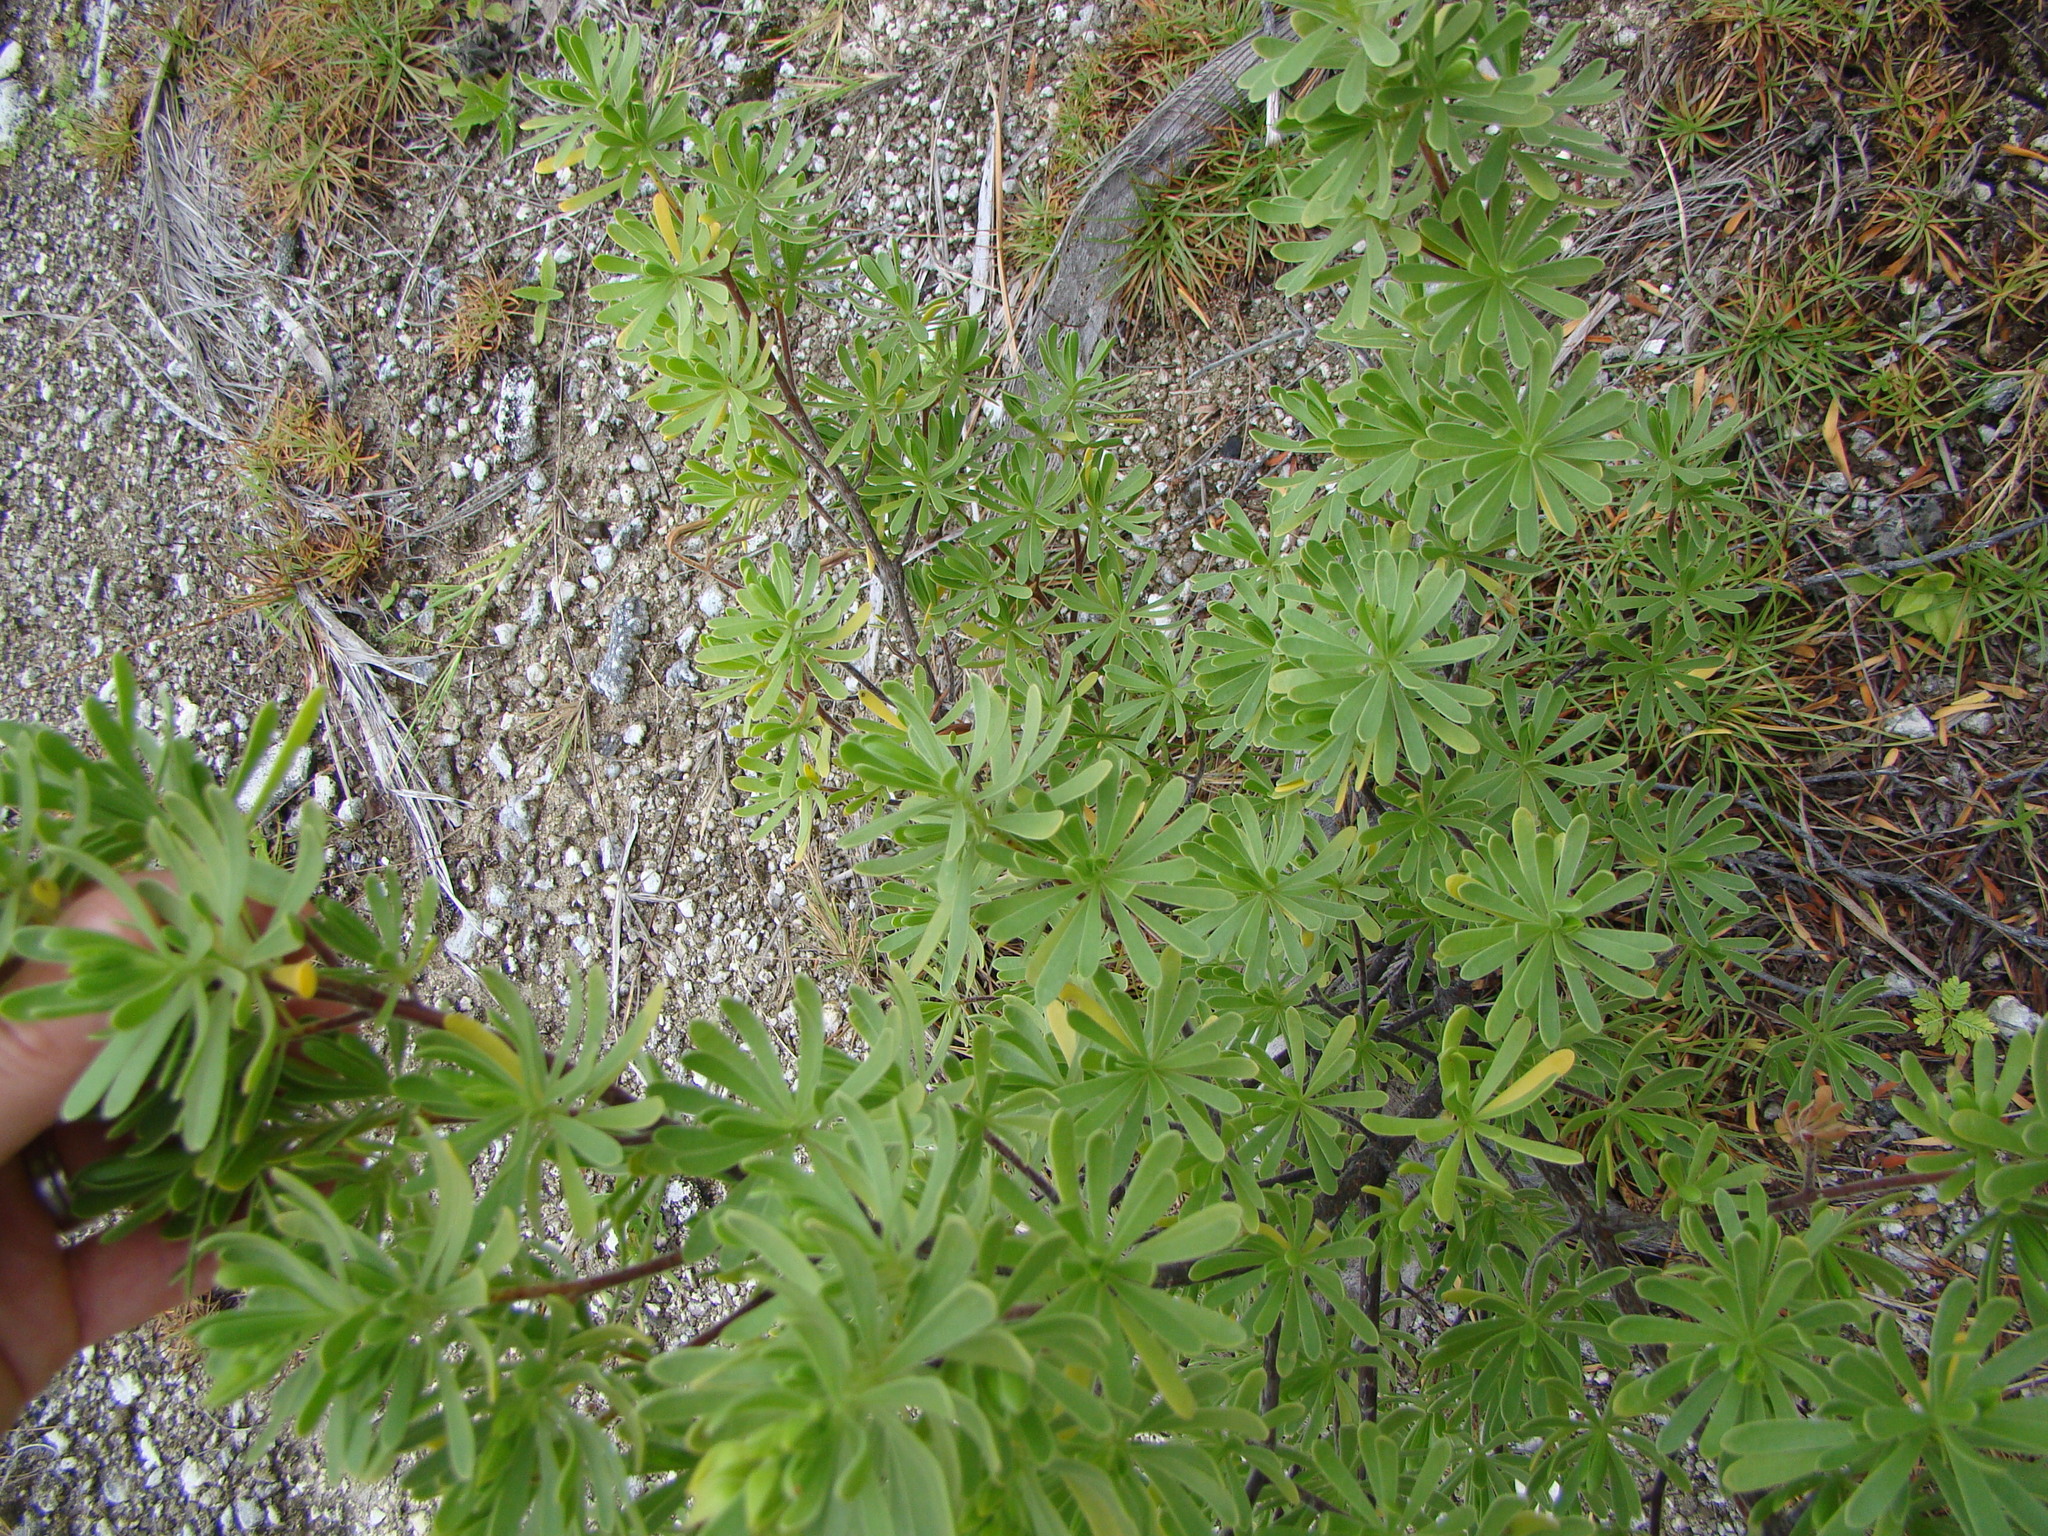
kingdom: Plantae
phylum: Tracheophyta
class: Magnoliopsida
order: Fabales
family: Surianaceae
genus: Suriana
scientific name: Suriana maritima
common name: Bay-cedar
